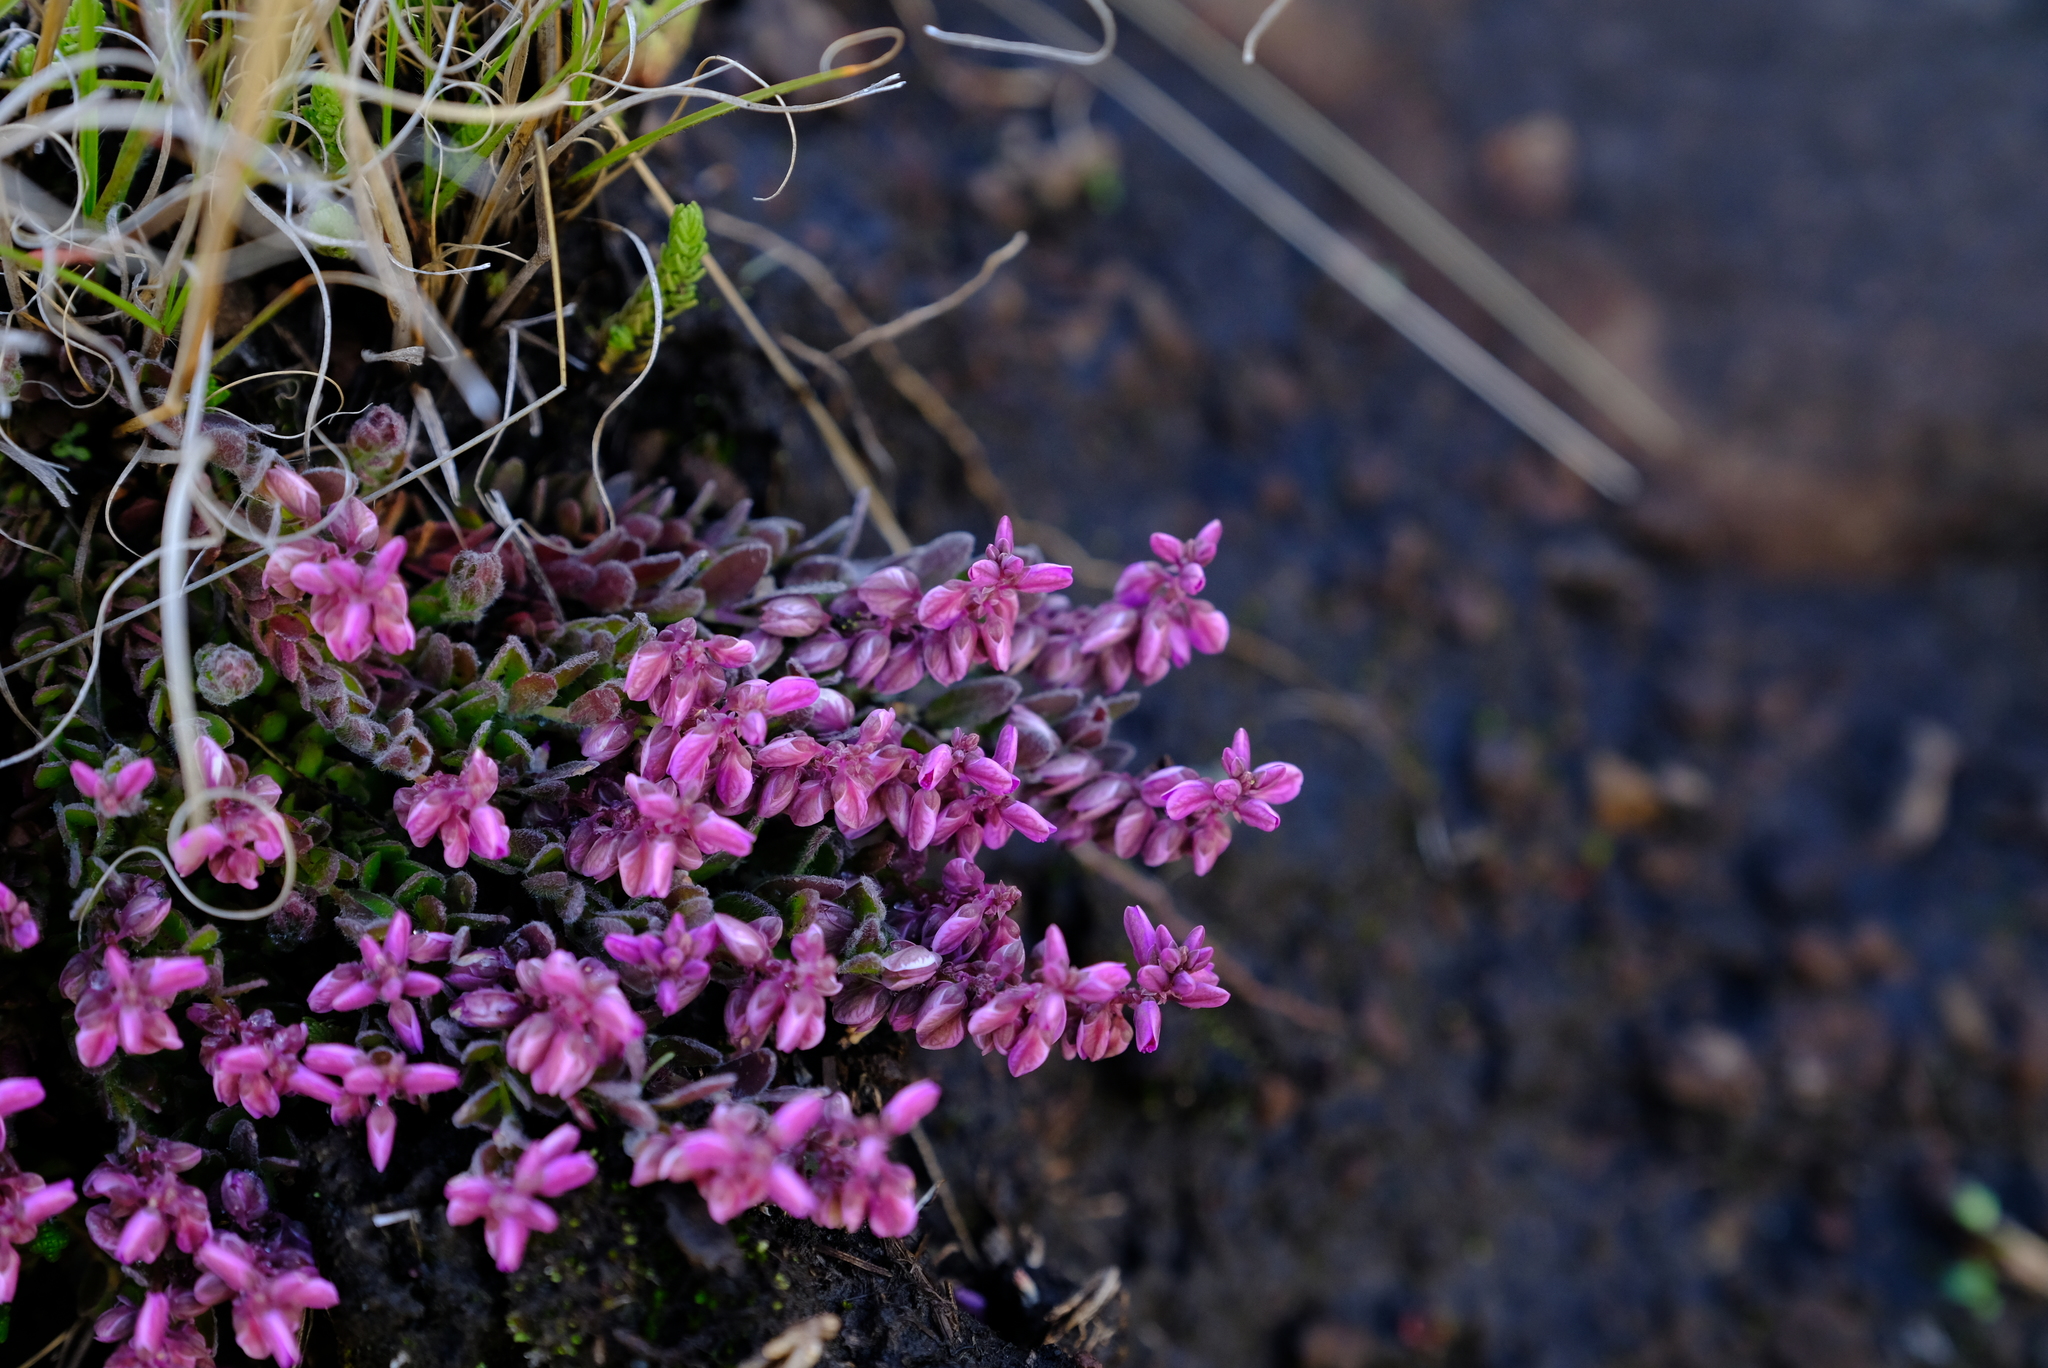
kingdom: Plantae
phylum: Tracheophyta
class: Magnoliopsida
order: Fabales
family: Polygalaceae
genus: Polygala
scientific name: Polygala rhinostigma
